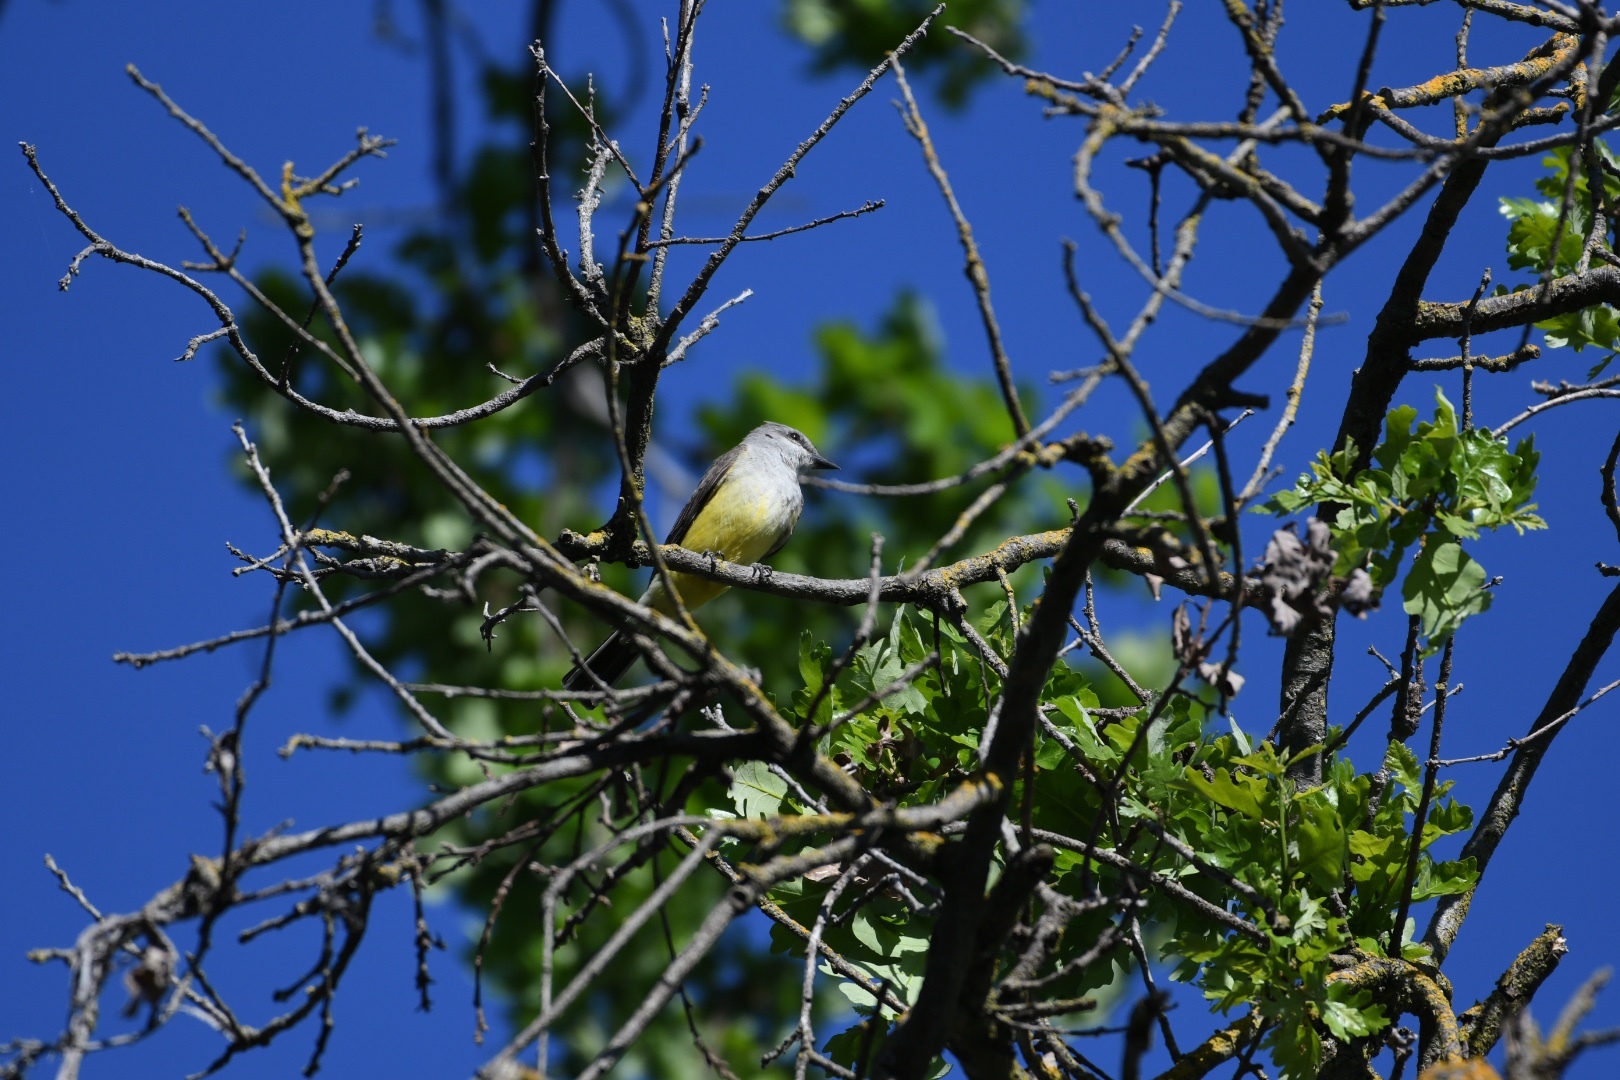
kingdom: Animalia
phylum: Chordata
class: Aves
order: Passeriformes
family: Tyrannidae
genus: Tyrannus
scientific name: Tyrannus verticalis
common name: Western kingbird
